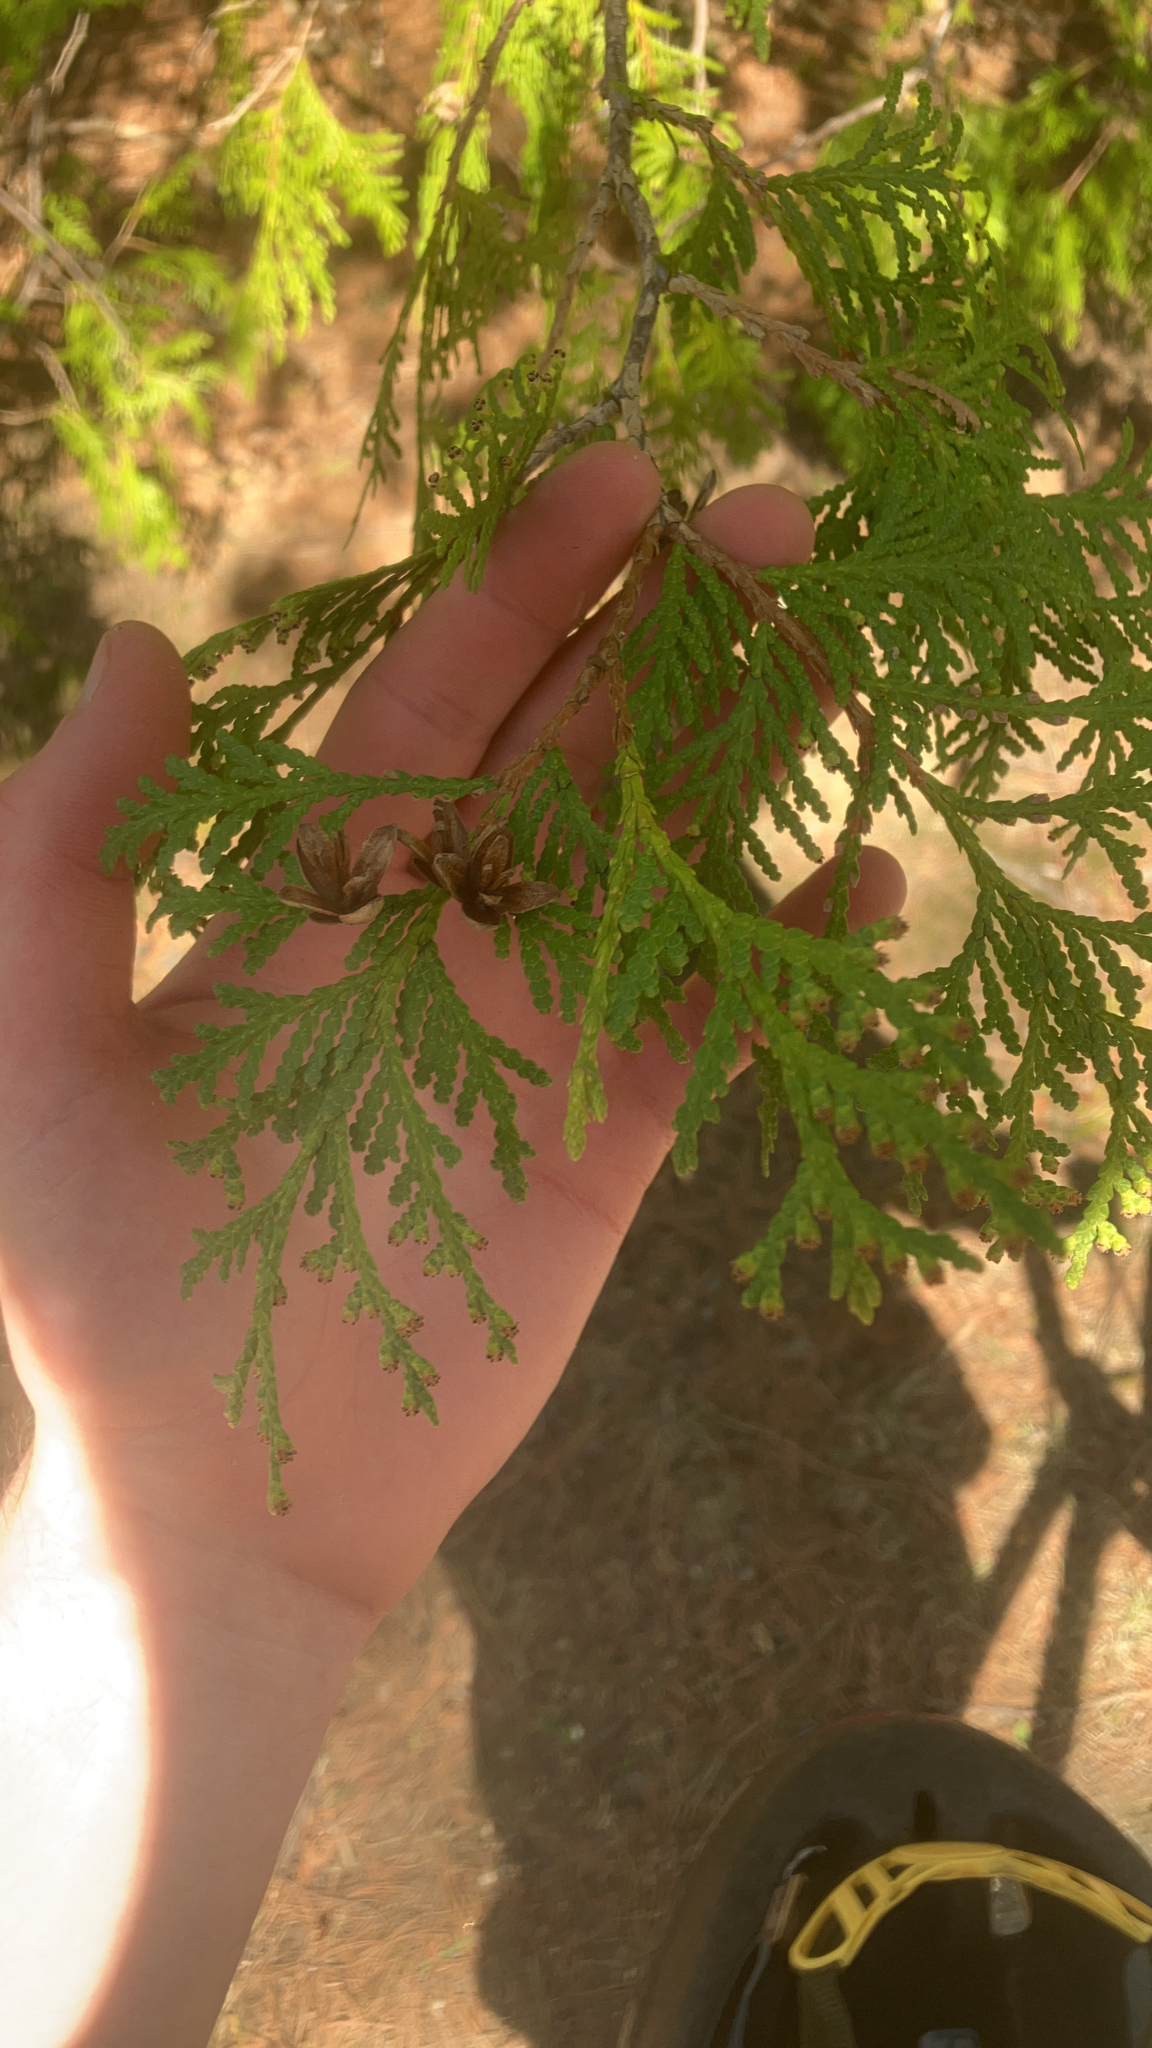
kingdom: Plantae
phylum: Tracheophyta
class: Pinopsida
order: Pinales
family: Cupressaceae
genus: Thuja
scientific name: Thuja occidentalis
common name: Northern white-cedar
